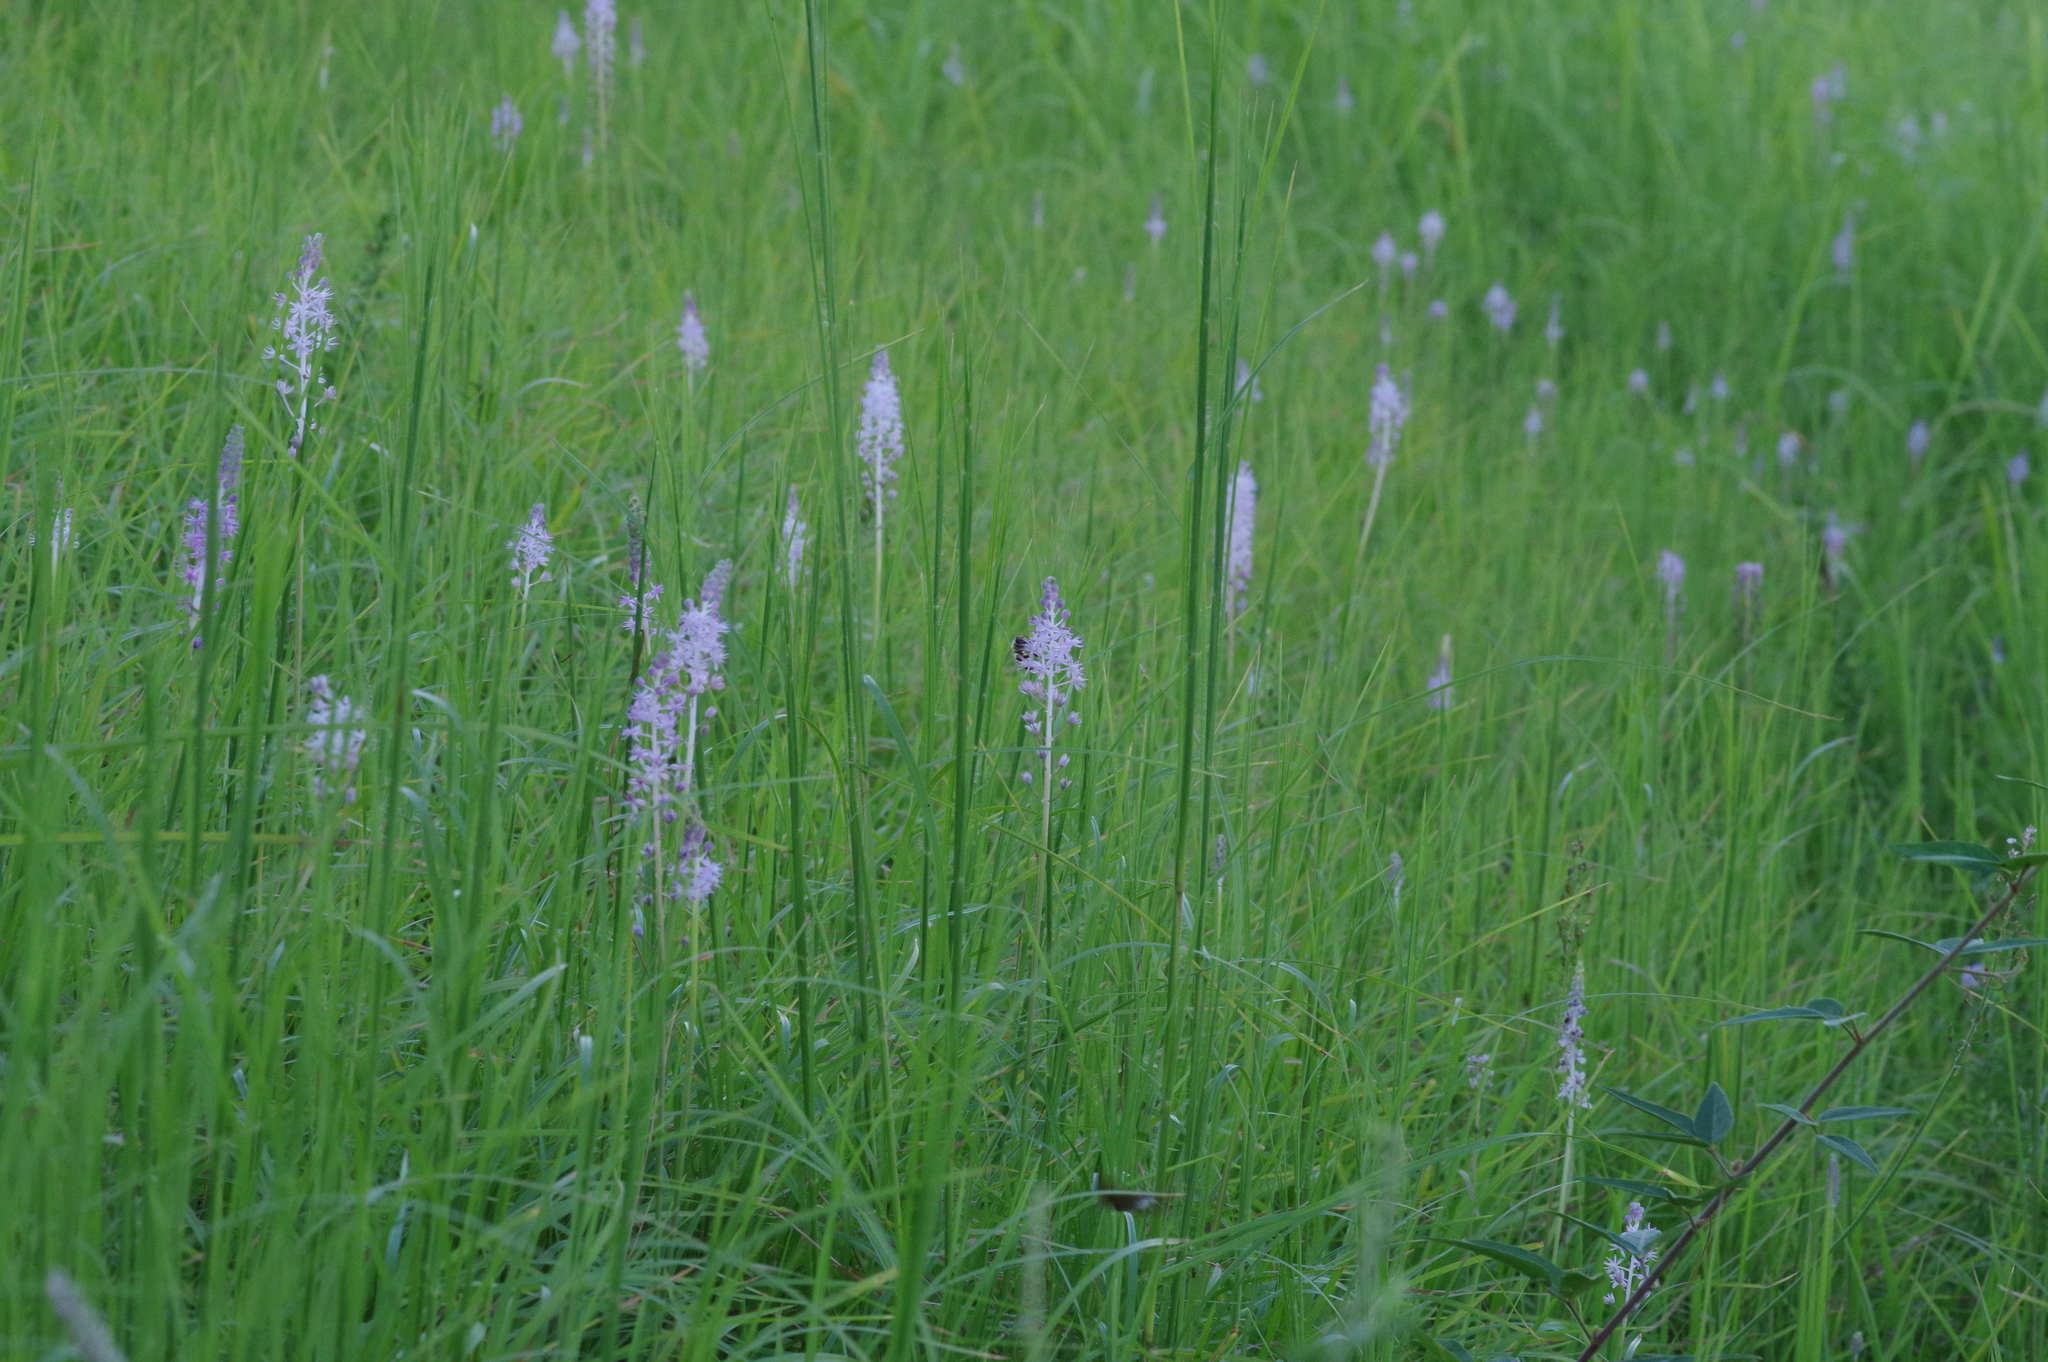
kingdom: Plantae
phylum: Tracheophyta
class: Liliopsida
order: Asparagales
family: Asparagaceae
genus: Barnardia
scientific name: Barnardia japonica
